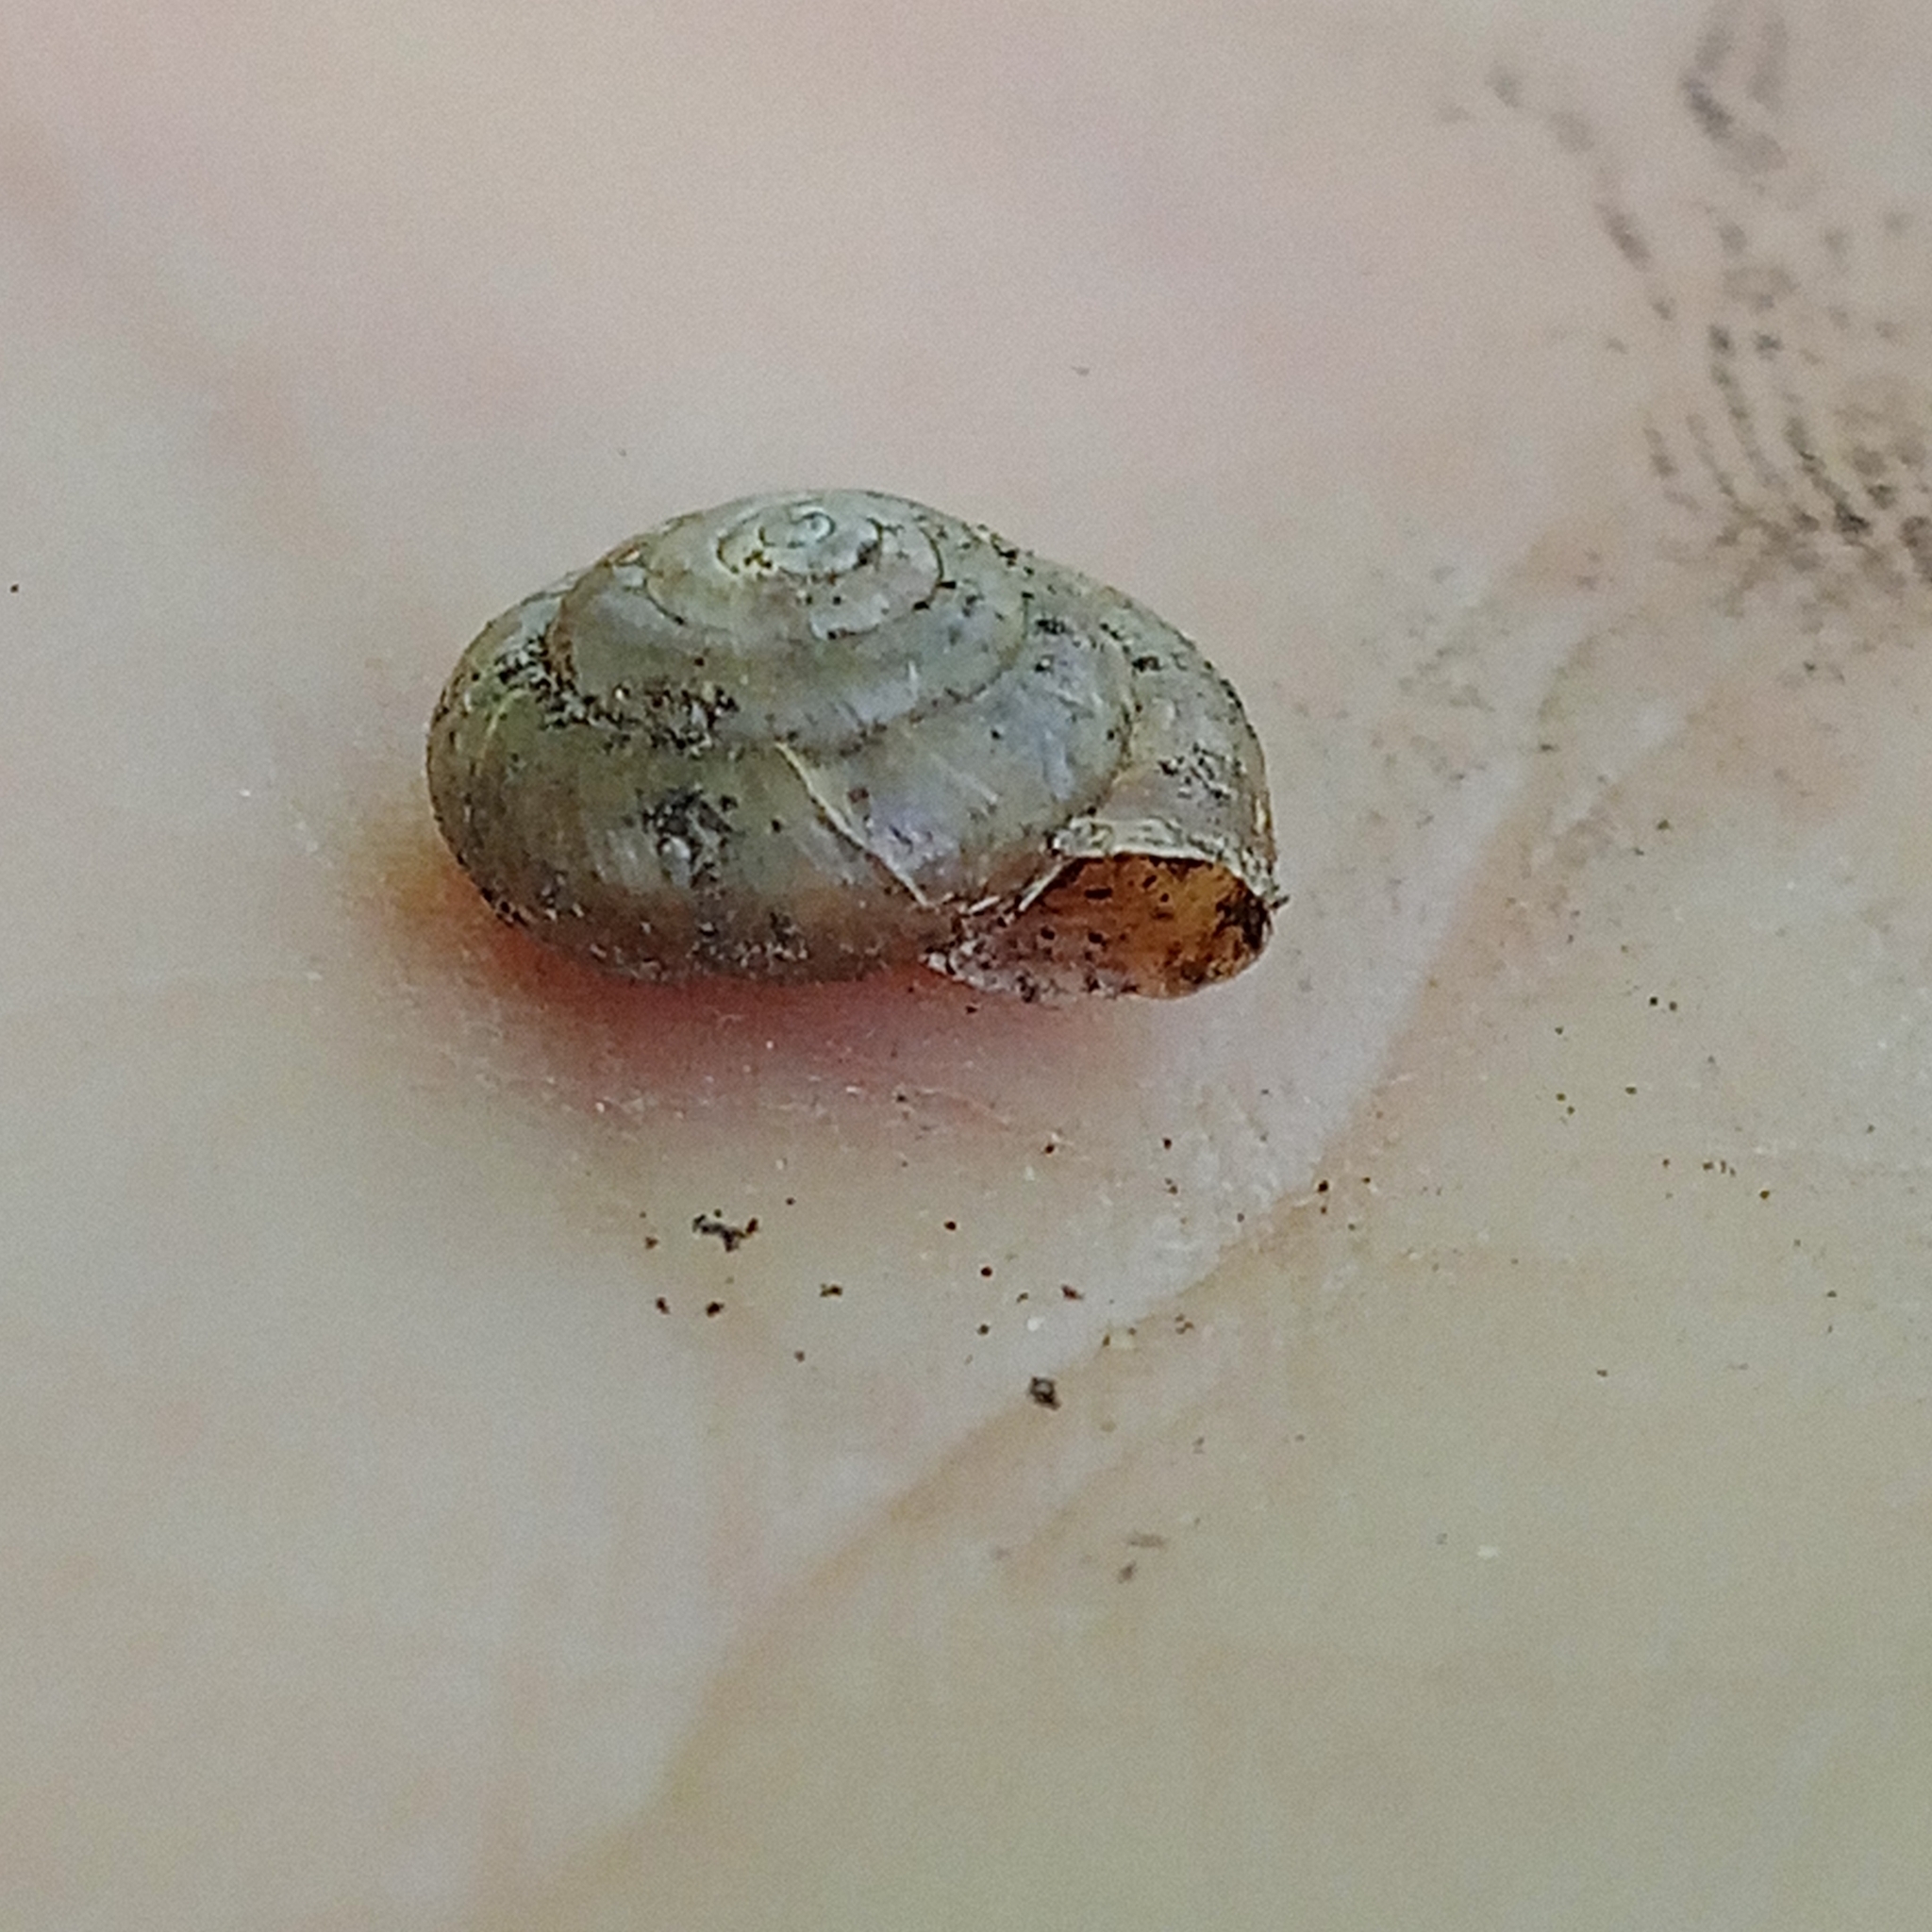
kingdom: Animalia
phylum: Mollusca
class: Gastropoda
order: Stylommatophora
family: Hygromiidae
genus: Trochulus
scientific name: Trochulus hispidus
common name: Hairy snail
